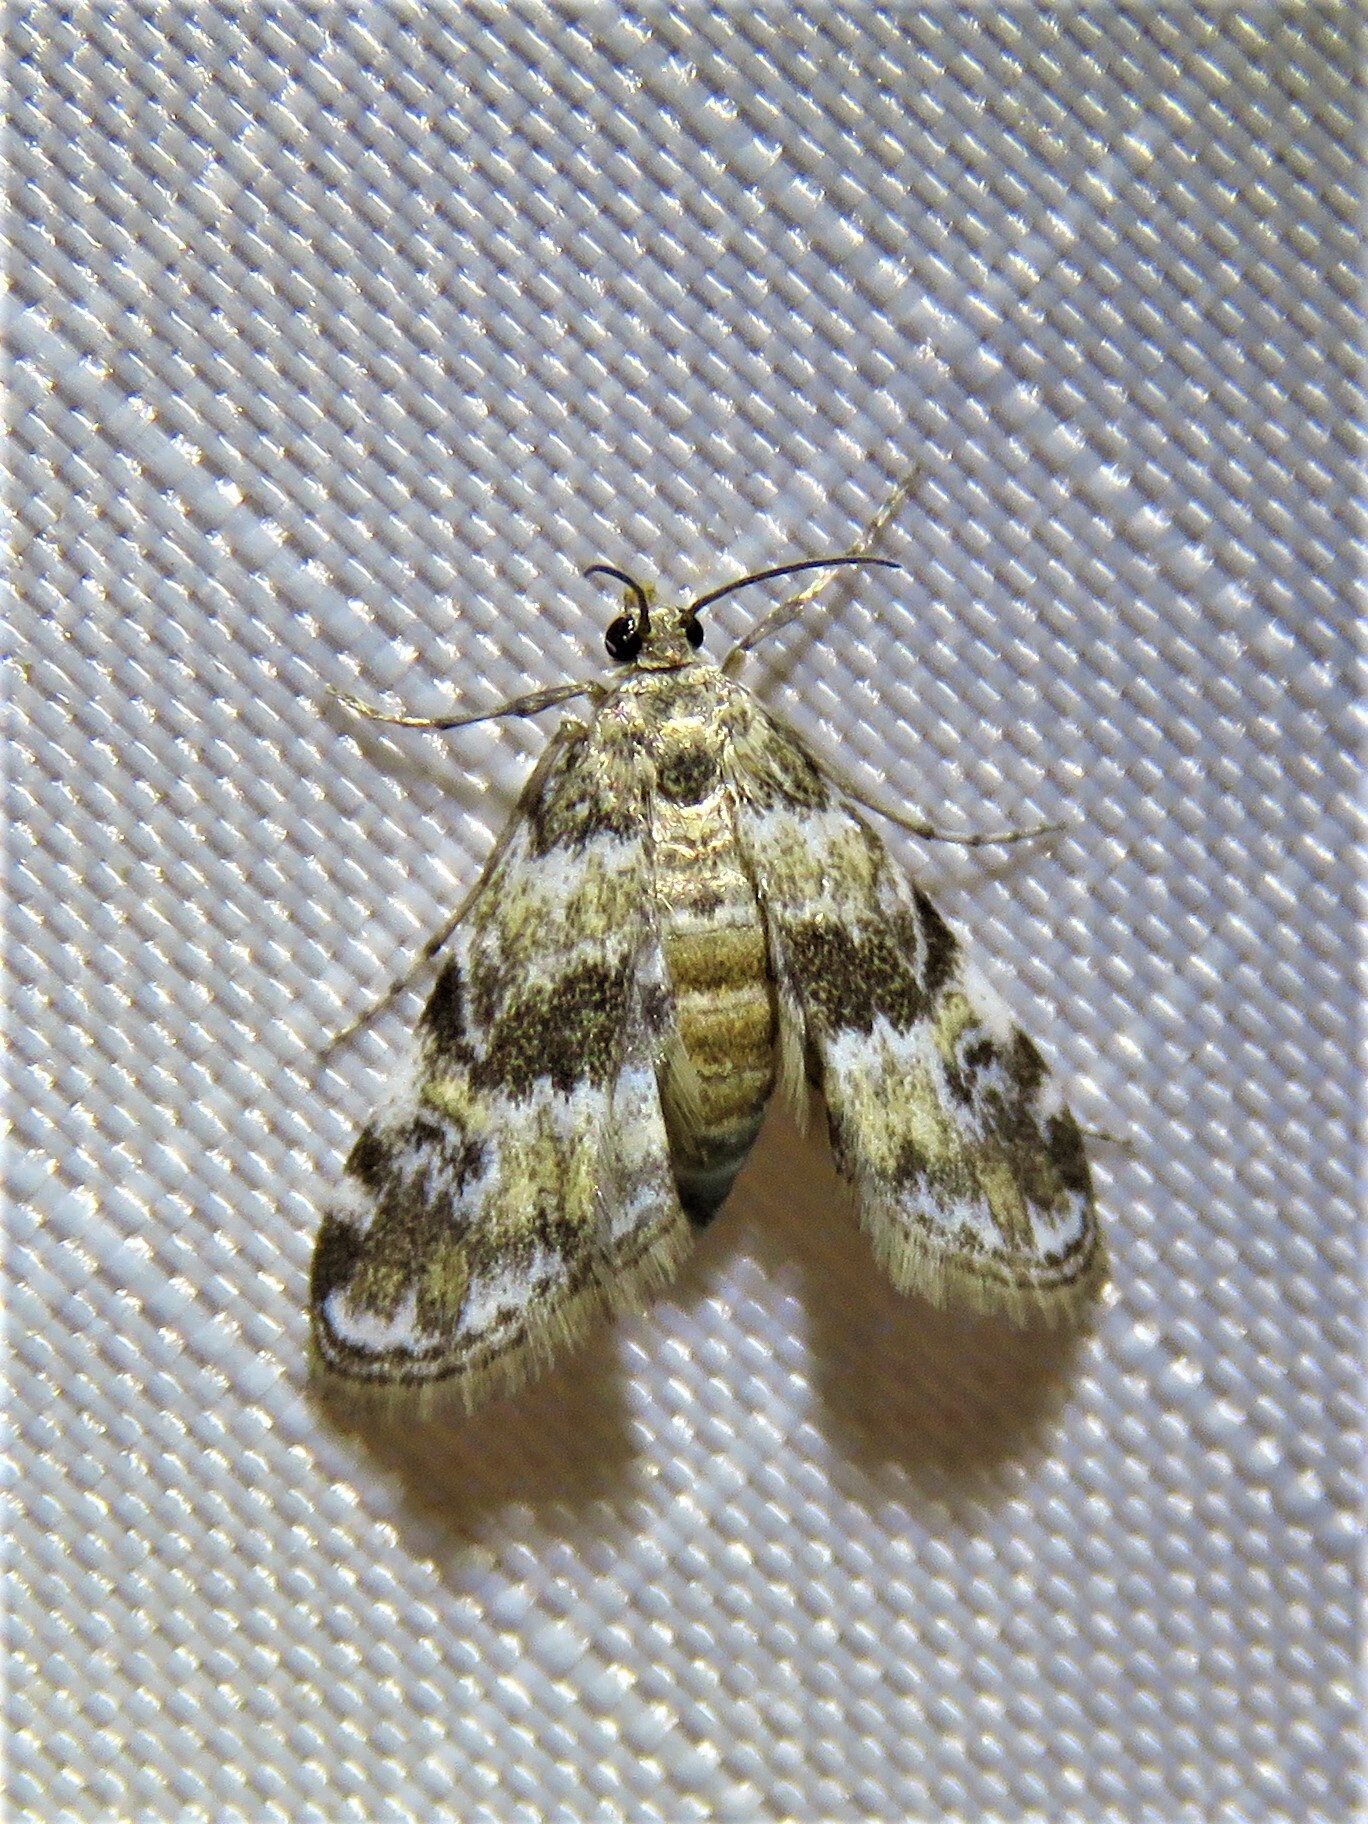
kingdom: Animalia
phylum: Arthropoda
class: Insecta
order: Lepidoptera
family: Crambidae
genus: Elophila
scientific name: Elophila obliteralis
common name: Waterlily leafcutter moth
